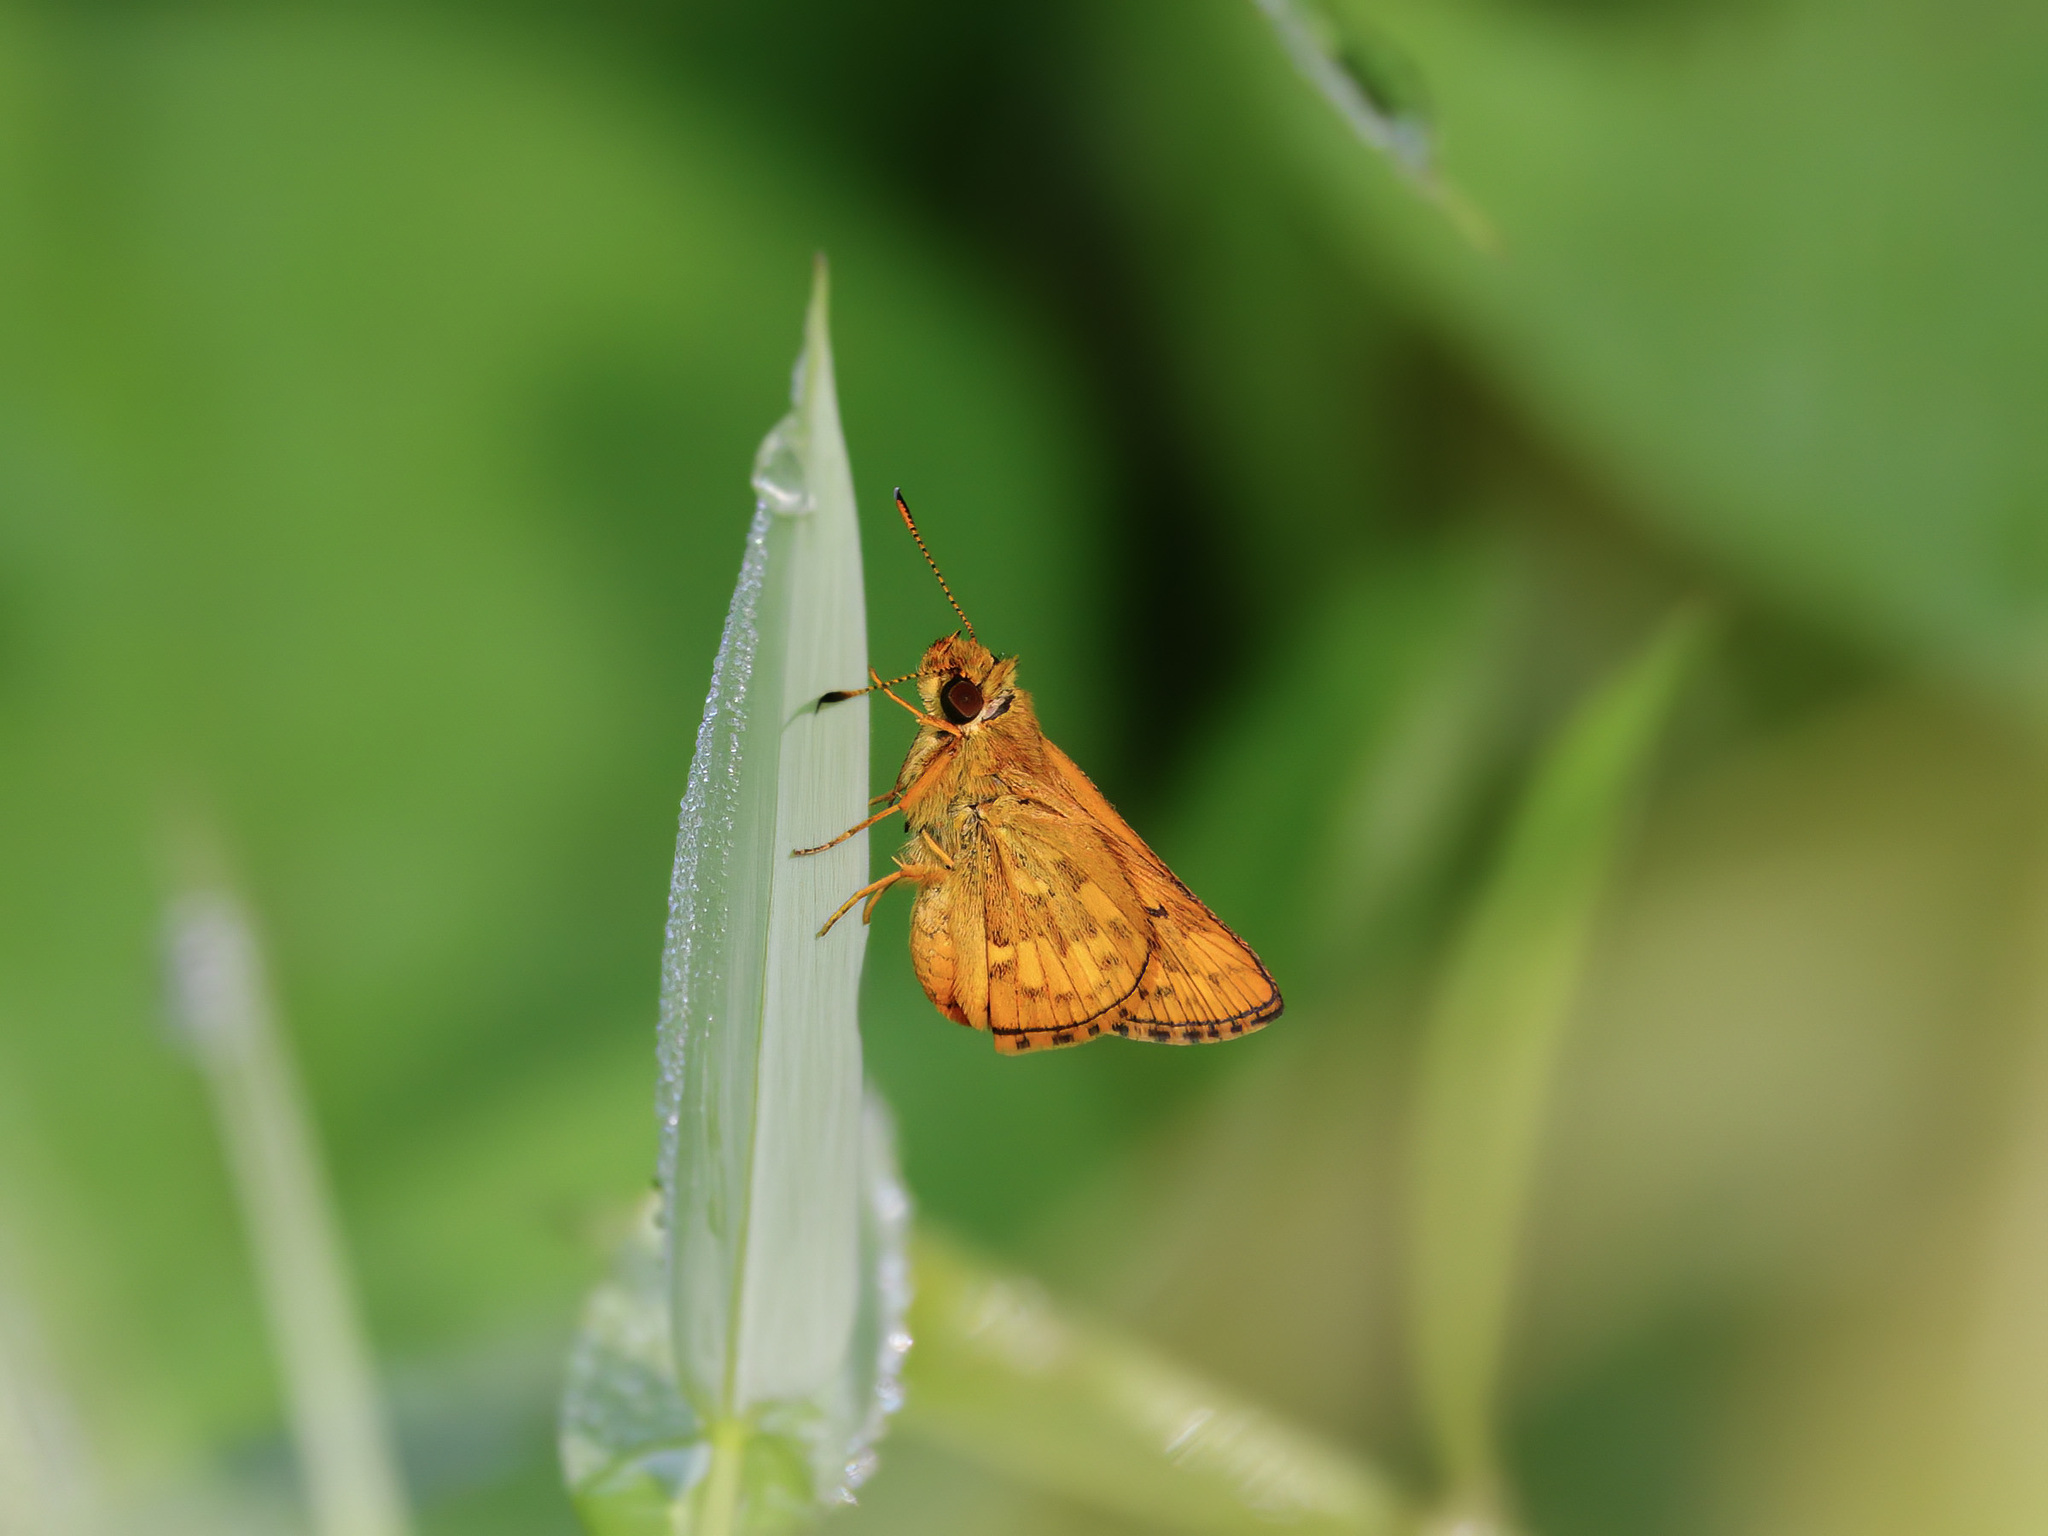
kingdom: Animalia
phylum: Arthropoda
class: Insecta
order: Lepidoptera
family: Hesperiidae
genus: Potanthus
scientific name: Potanthus omaha
